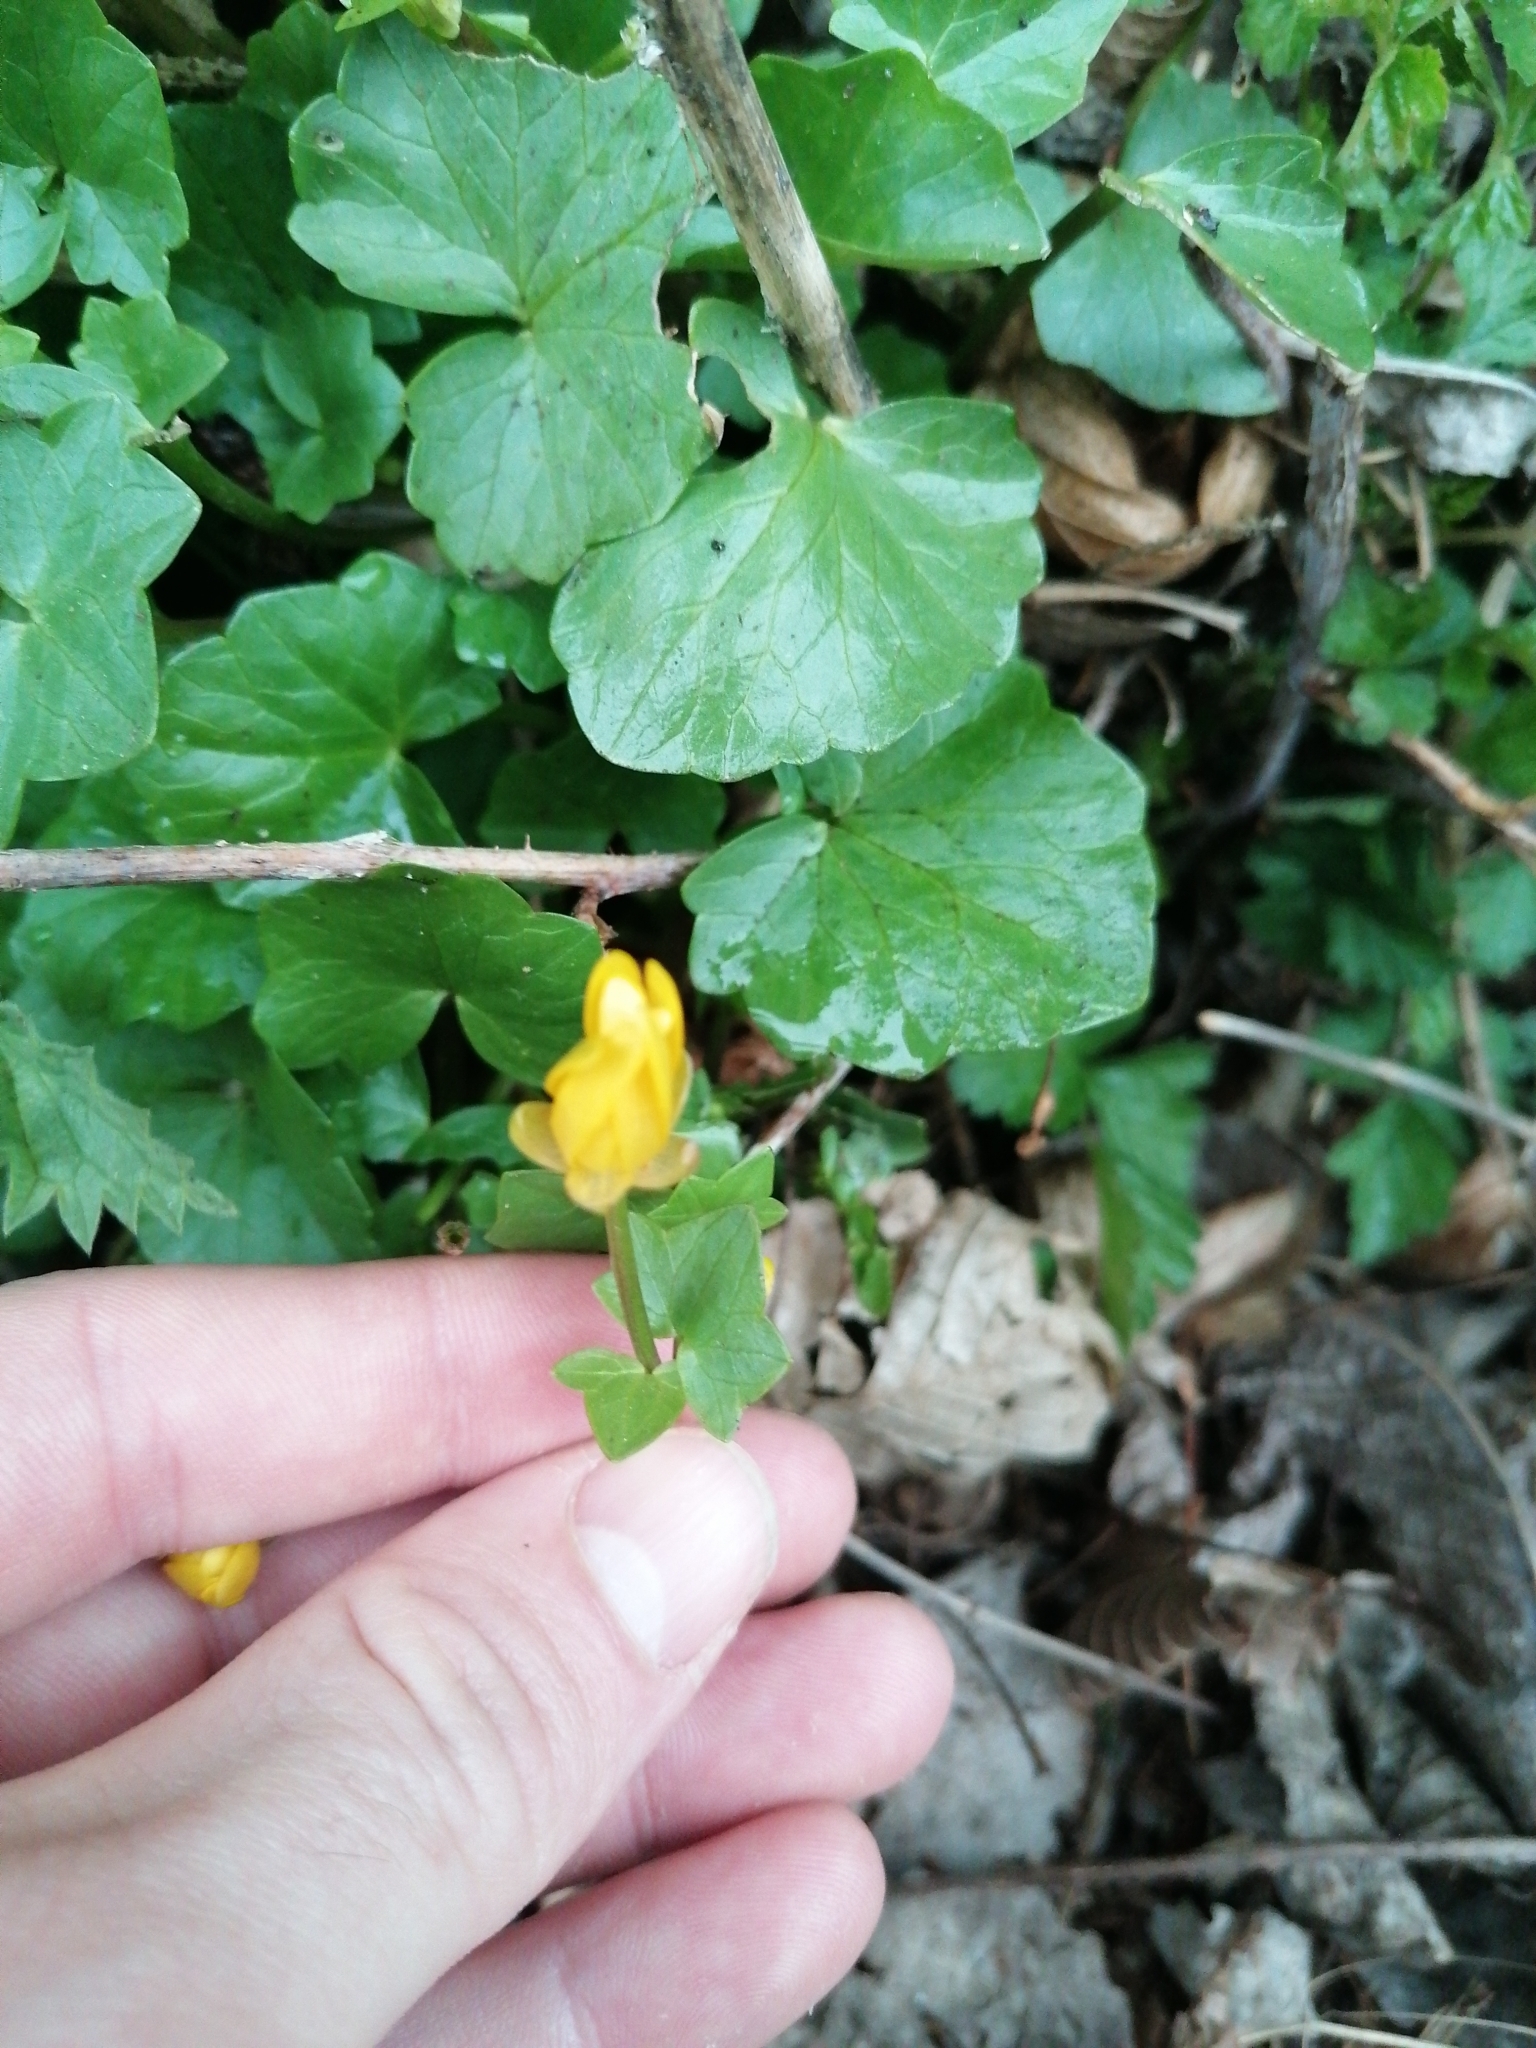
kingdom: Plantae
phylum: Tracheophyta
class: Magnoliopsida
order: Ranunculales
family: Ranunculaceae
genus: Ficaria
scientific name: Ficaria verna
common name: Lesser celandine
